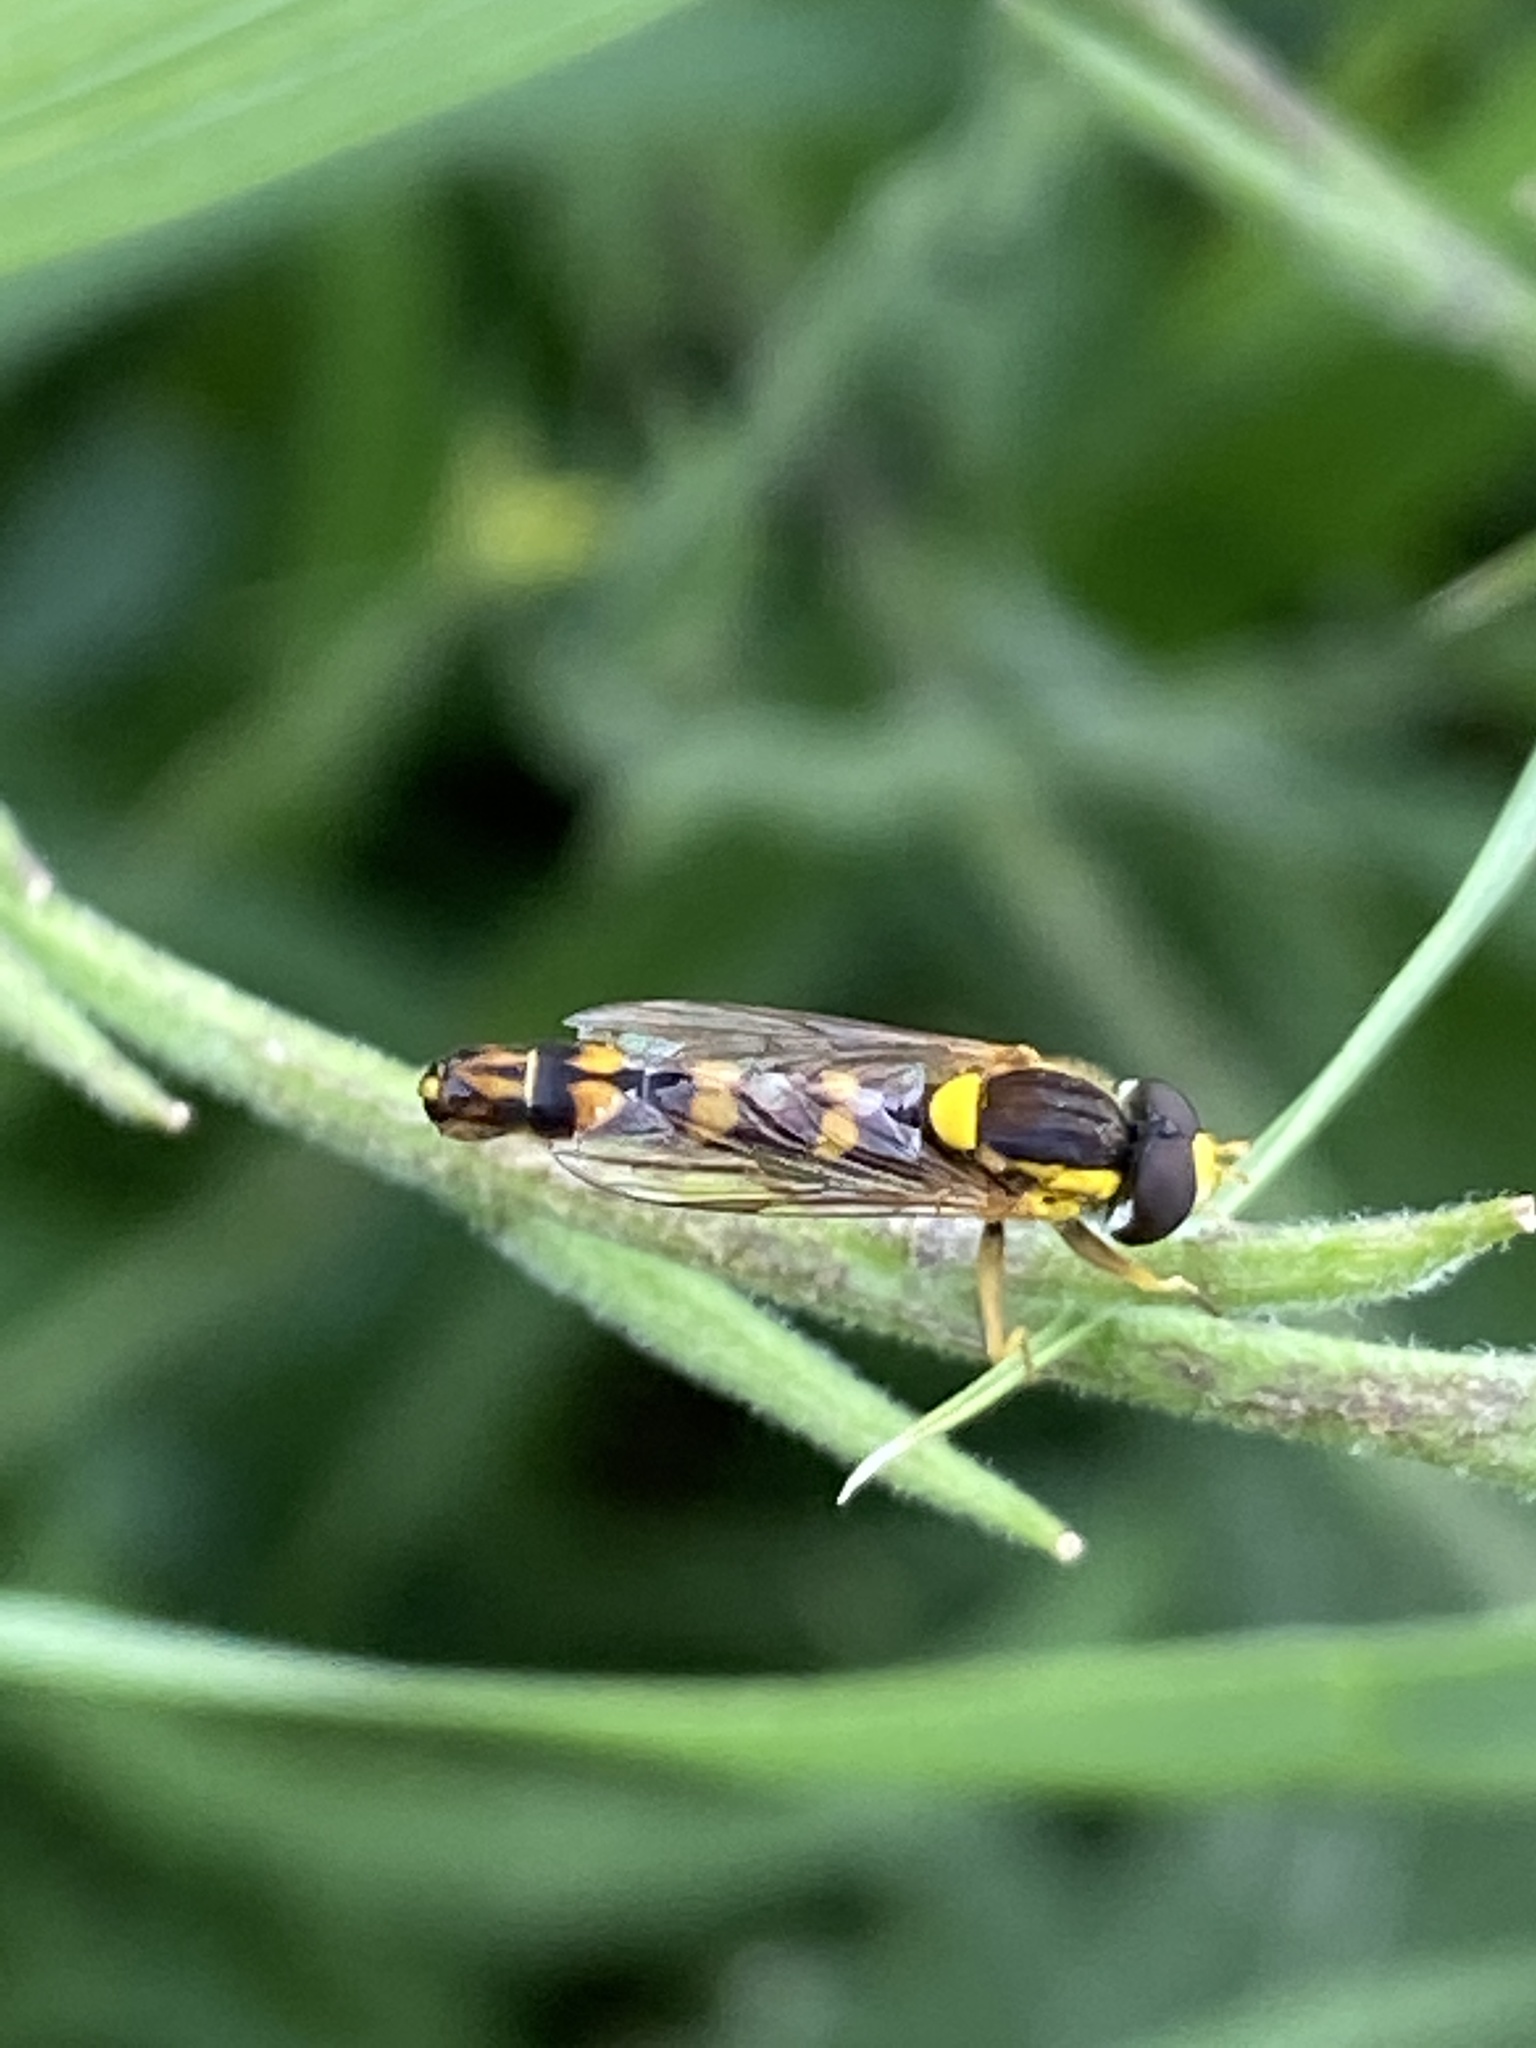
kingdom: Animalia
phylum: Arthropoda
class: Insecta
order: Diptera
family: Syrphidae
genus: Sphaerophoria
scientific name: Sphaerophoria scripta
